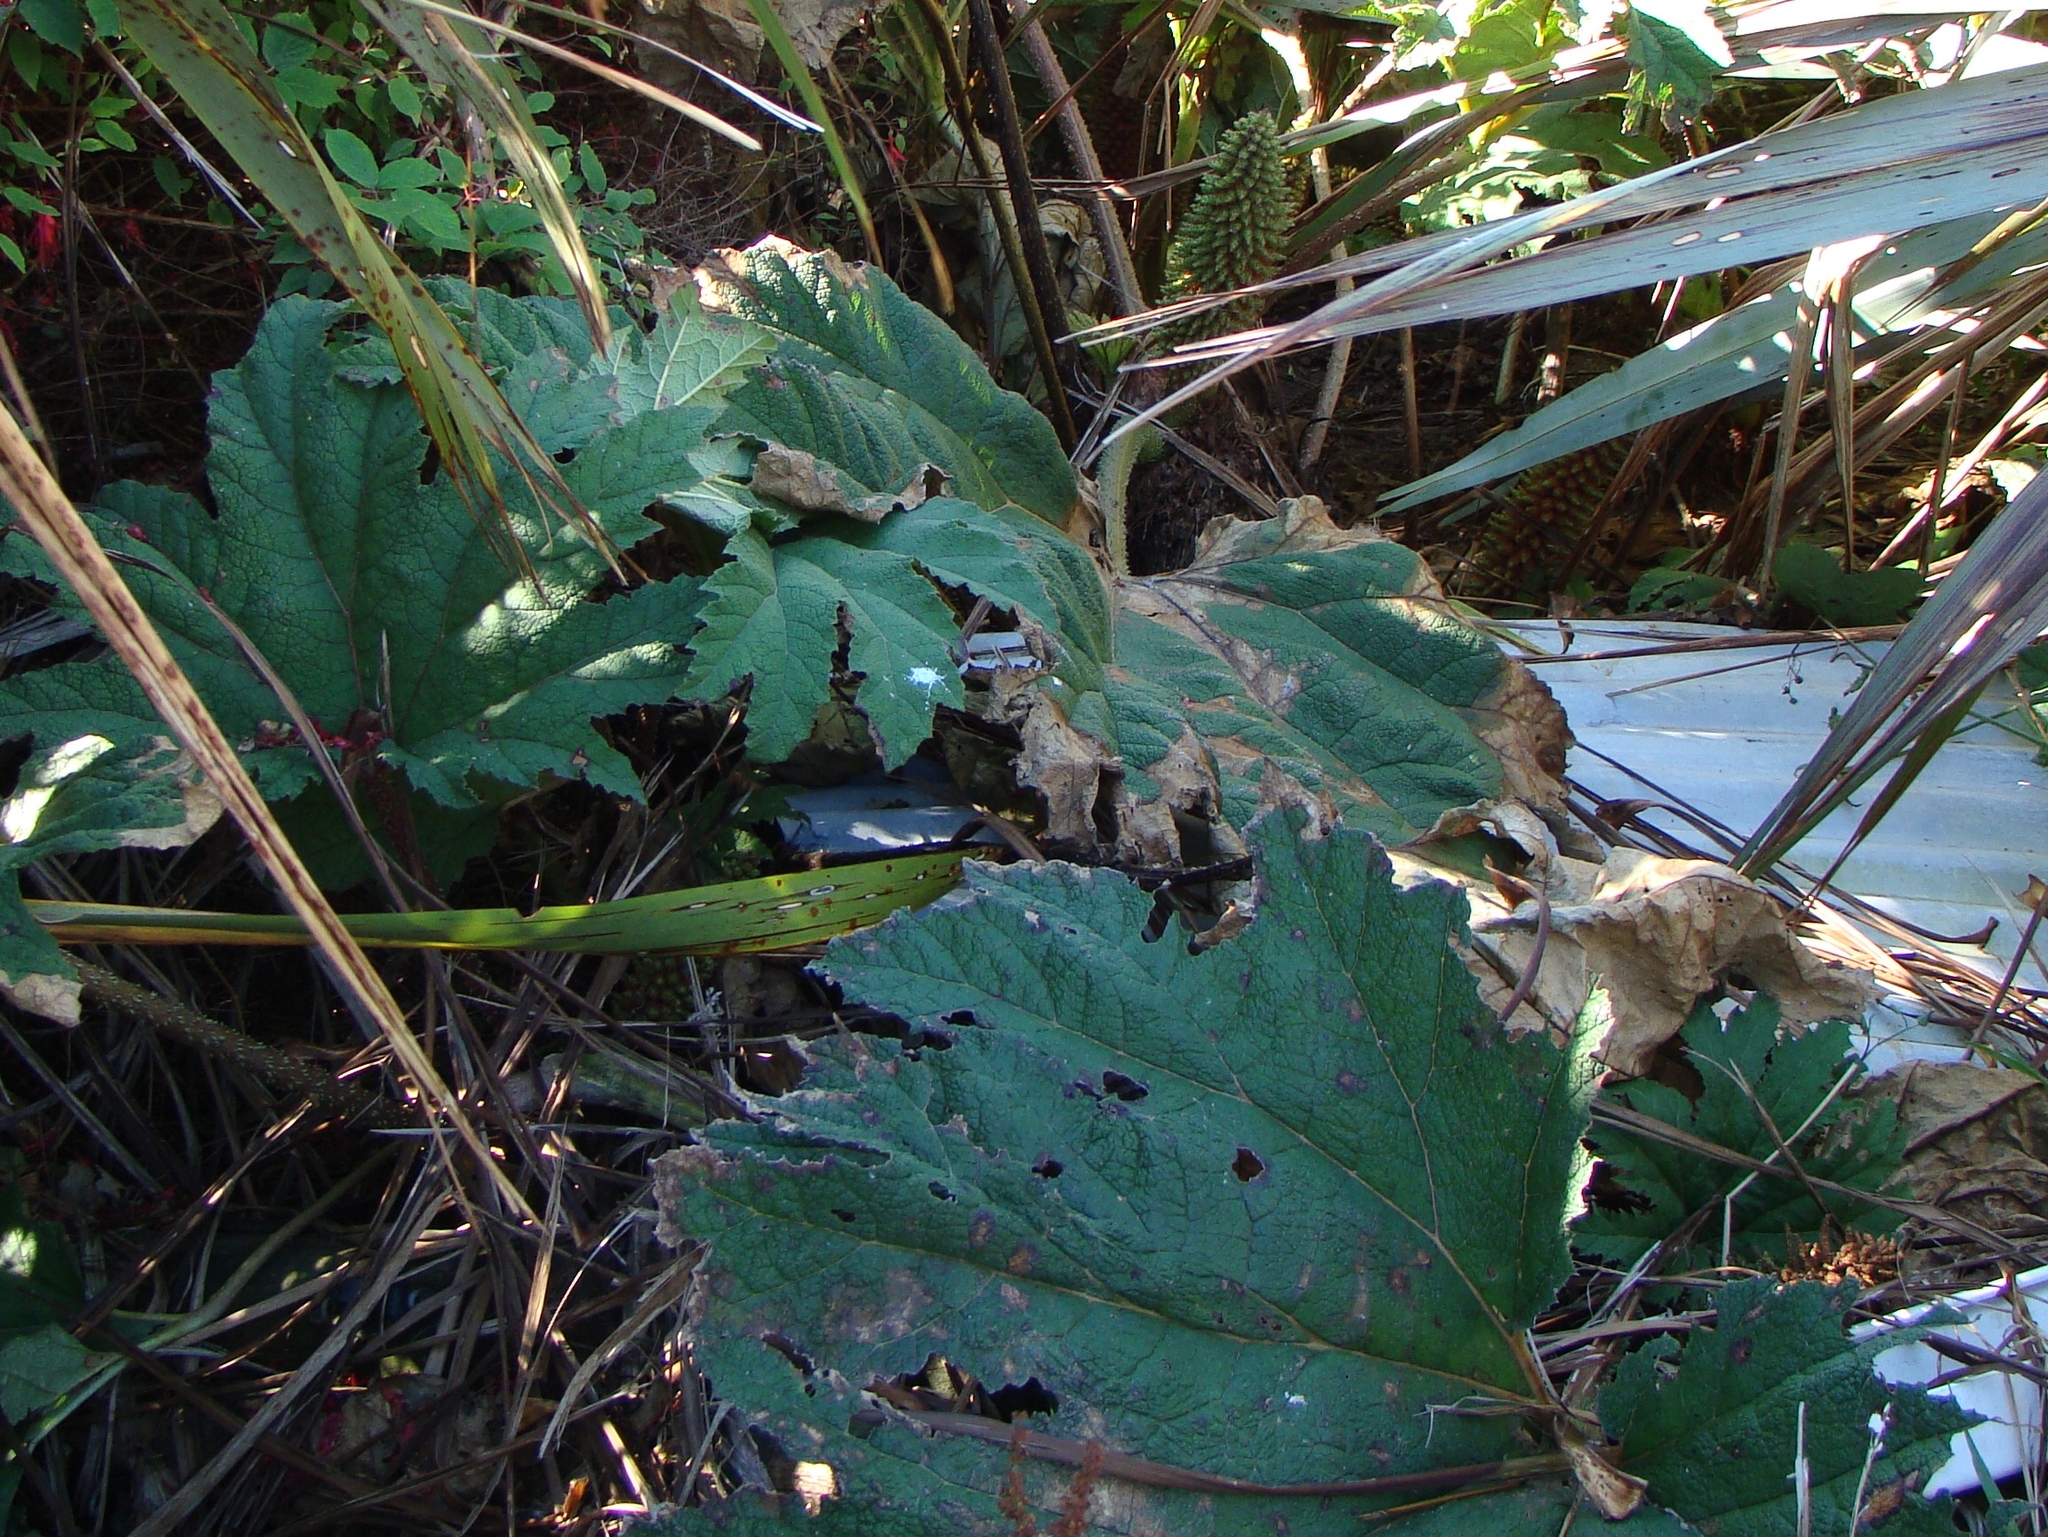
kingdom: Plantae
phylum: Tracheophyta
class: Magnoliopsida
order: Gunnerales
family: Gunneraceae
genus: Gunnera
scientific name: Gunnera tinctoria
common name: Giant-rhubarb
